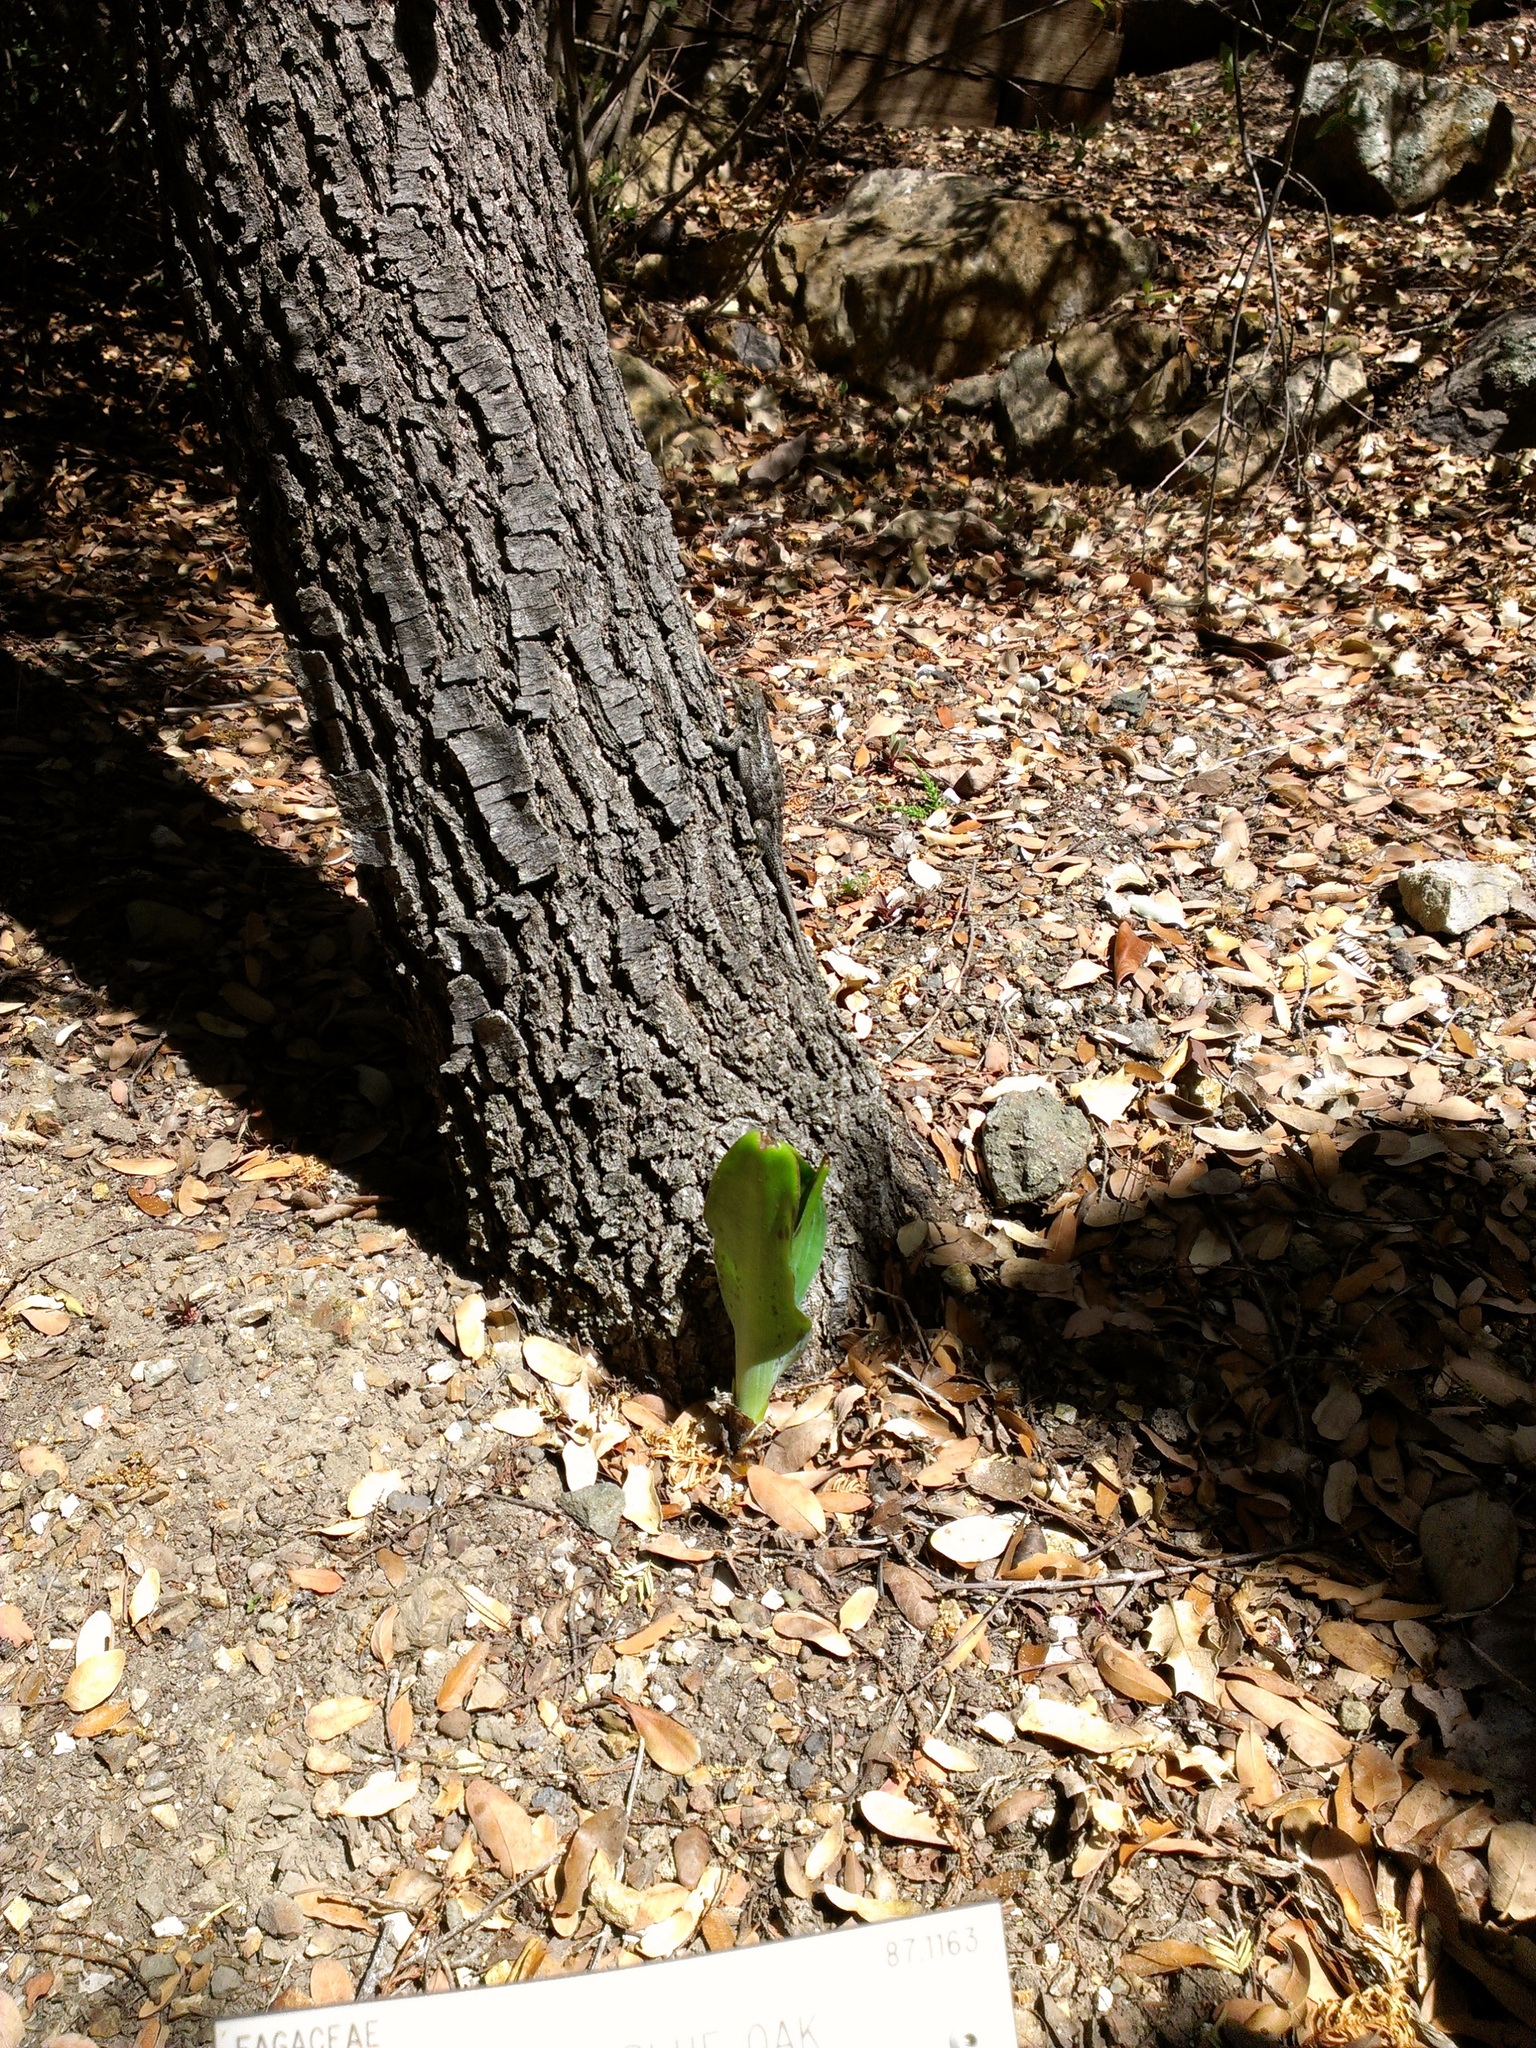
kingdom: Animalia
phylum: Chordata
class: Squamata
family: Phrynosomatidae
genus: Sceloporus
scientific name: Sceloporus occidentalis
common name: Western fence lizard
